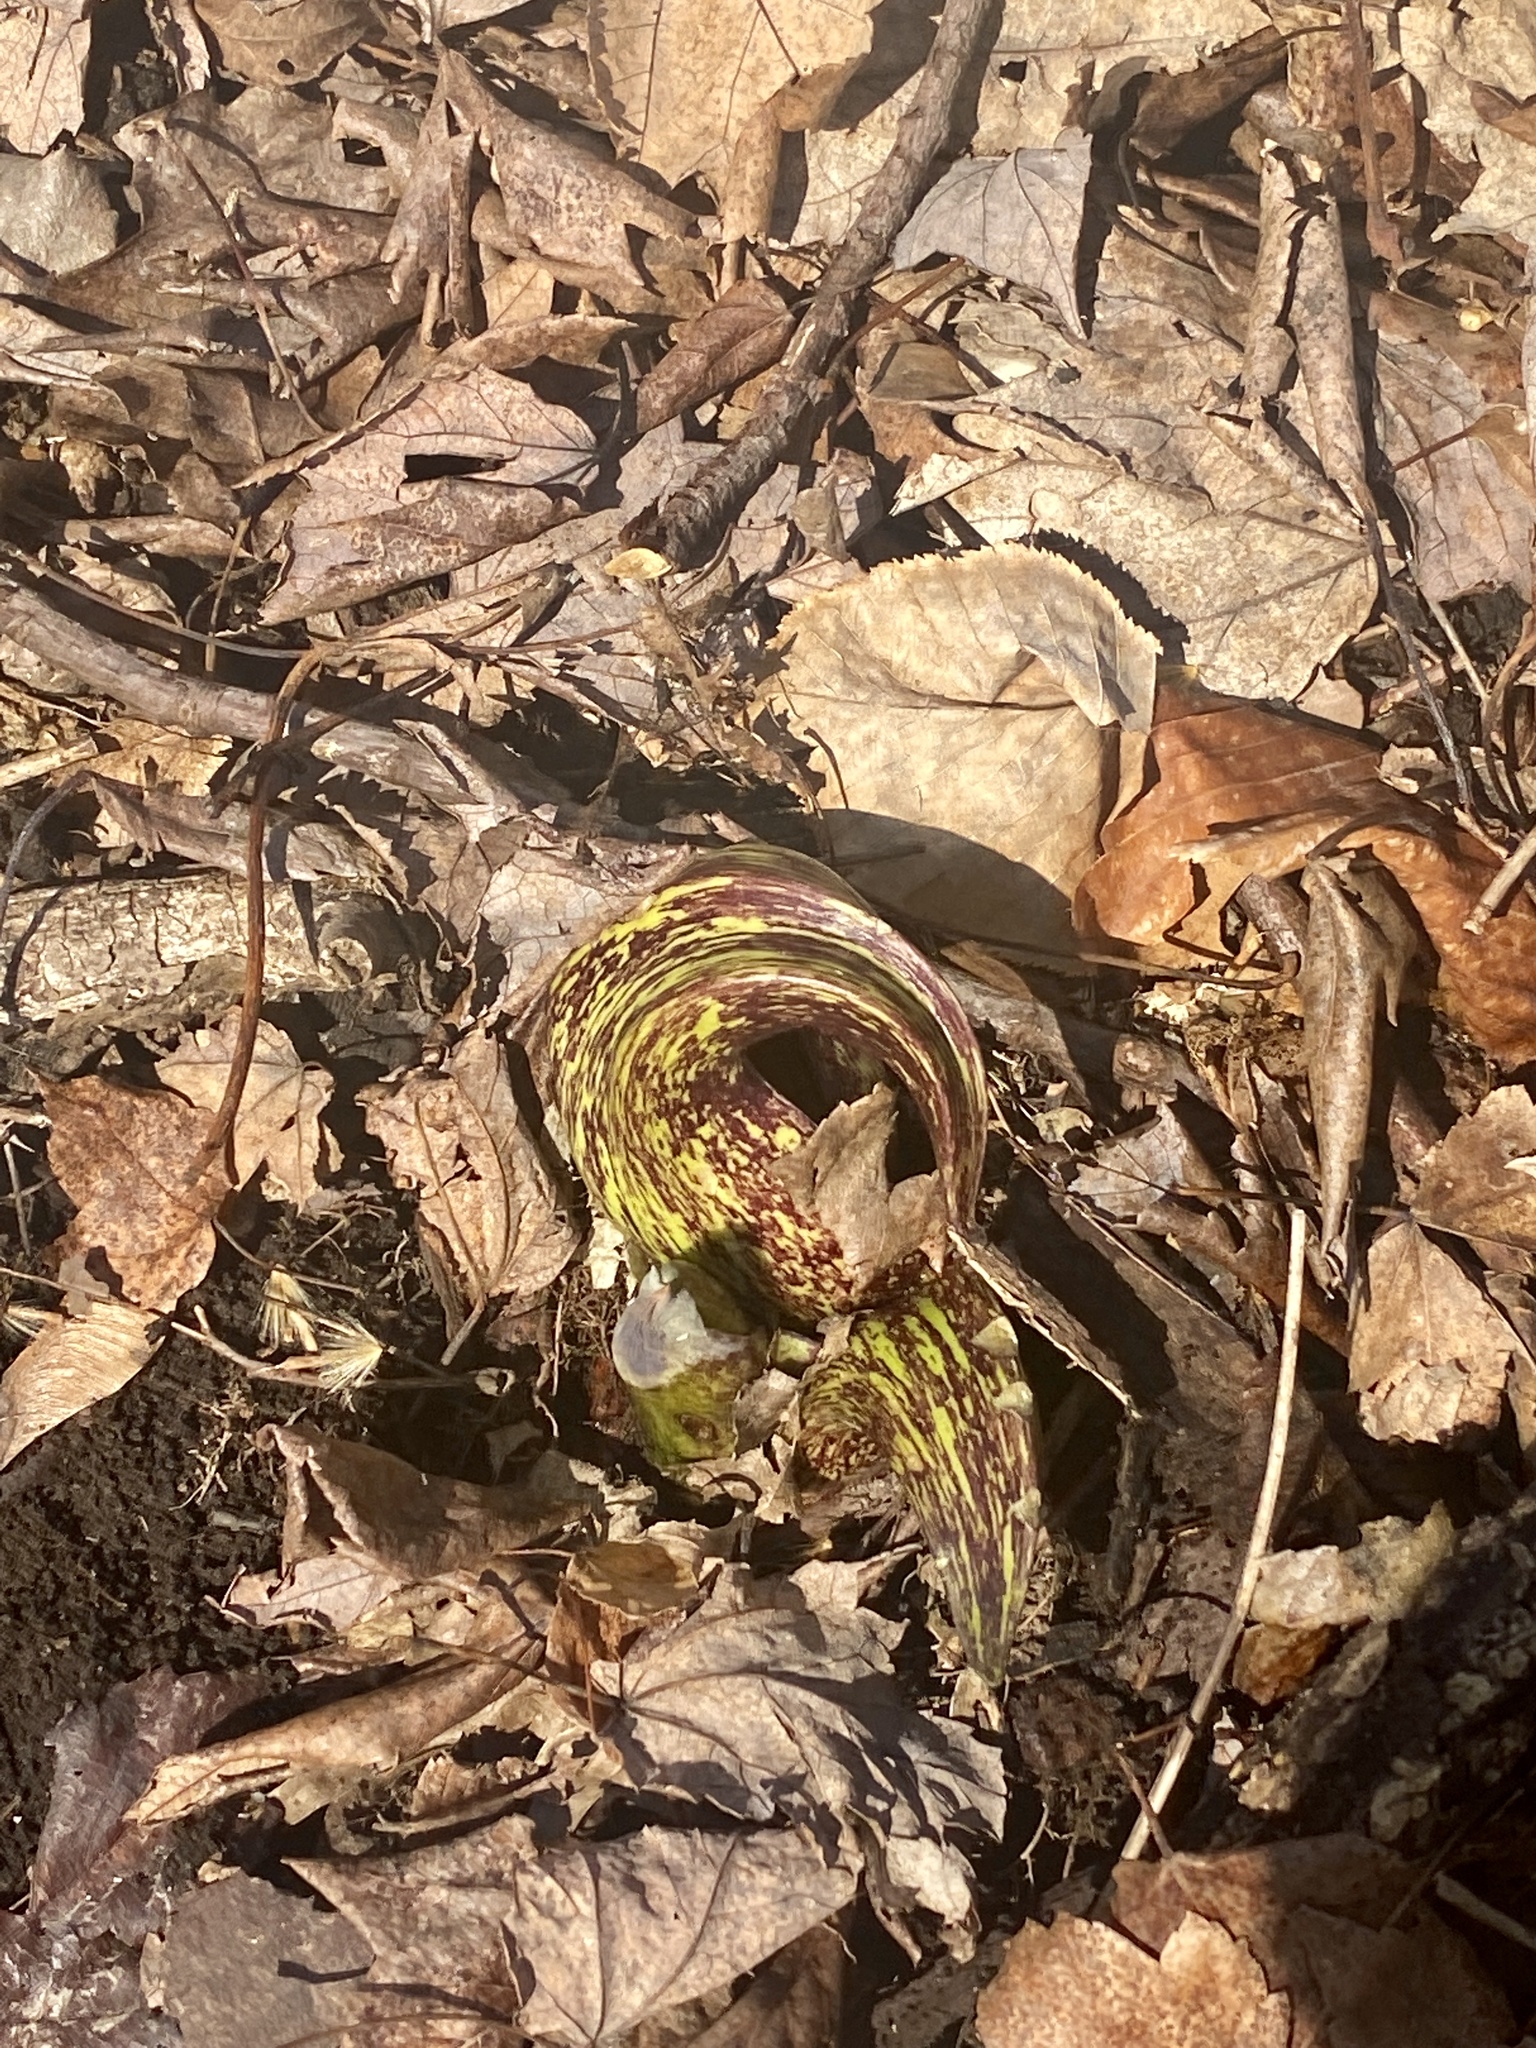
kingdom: Plantae
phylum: Tracheophyta
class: Liliopsida
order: Alismatales
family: Araceae
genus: Symplocarpus
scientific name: Symplocarpus foetidus
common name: Eastern skunk cabbage
